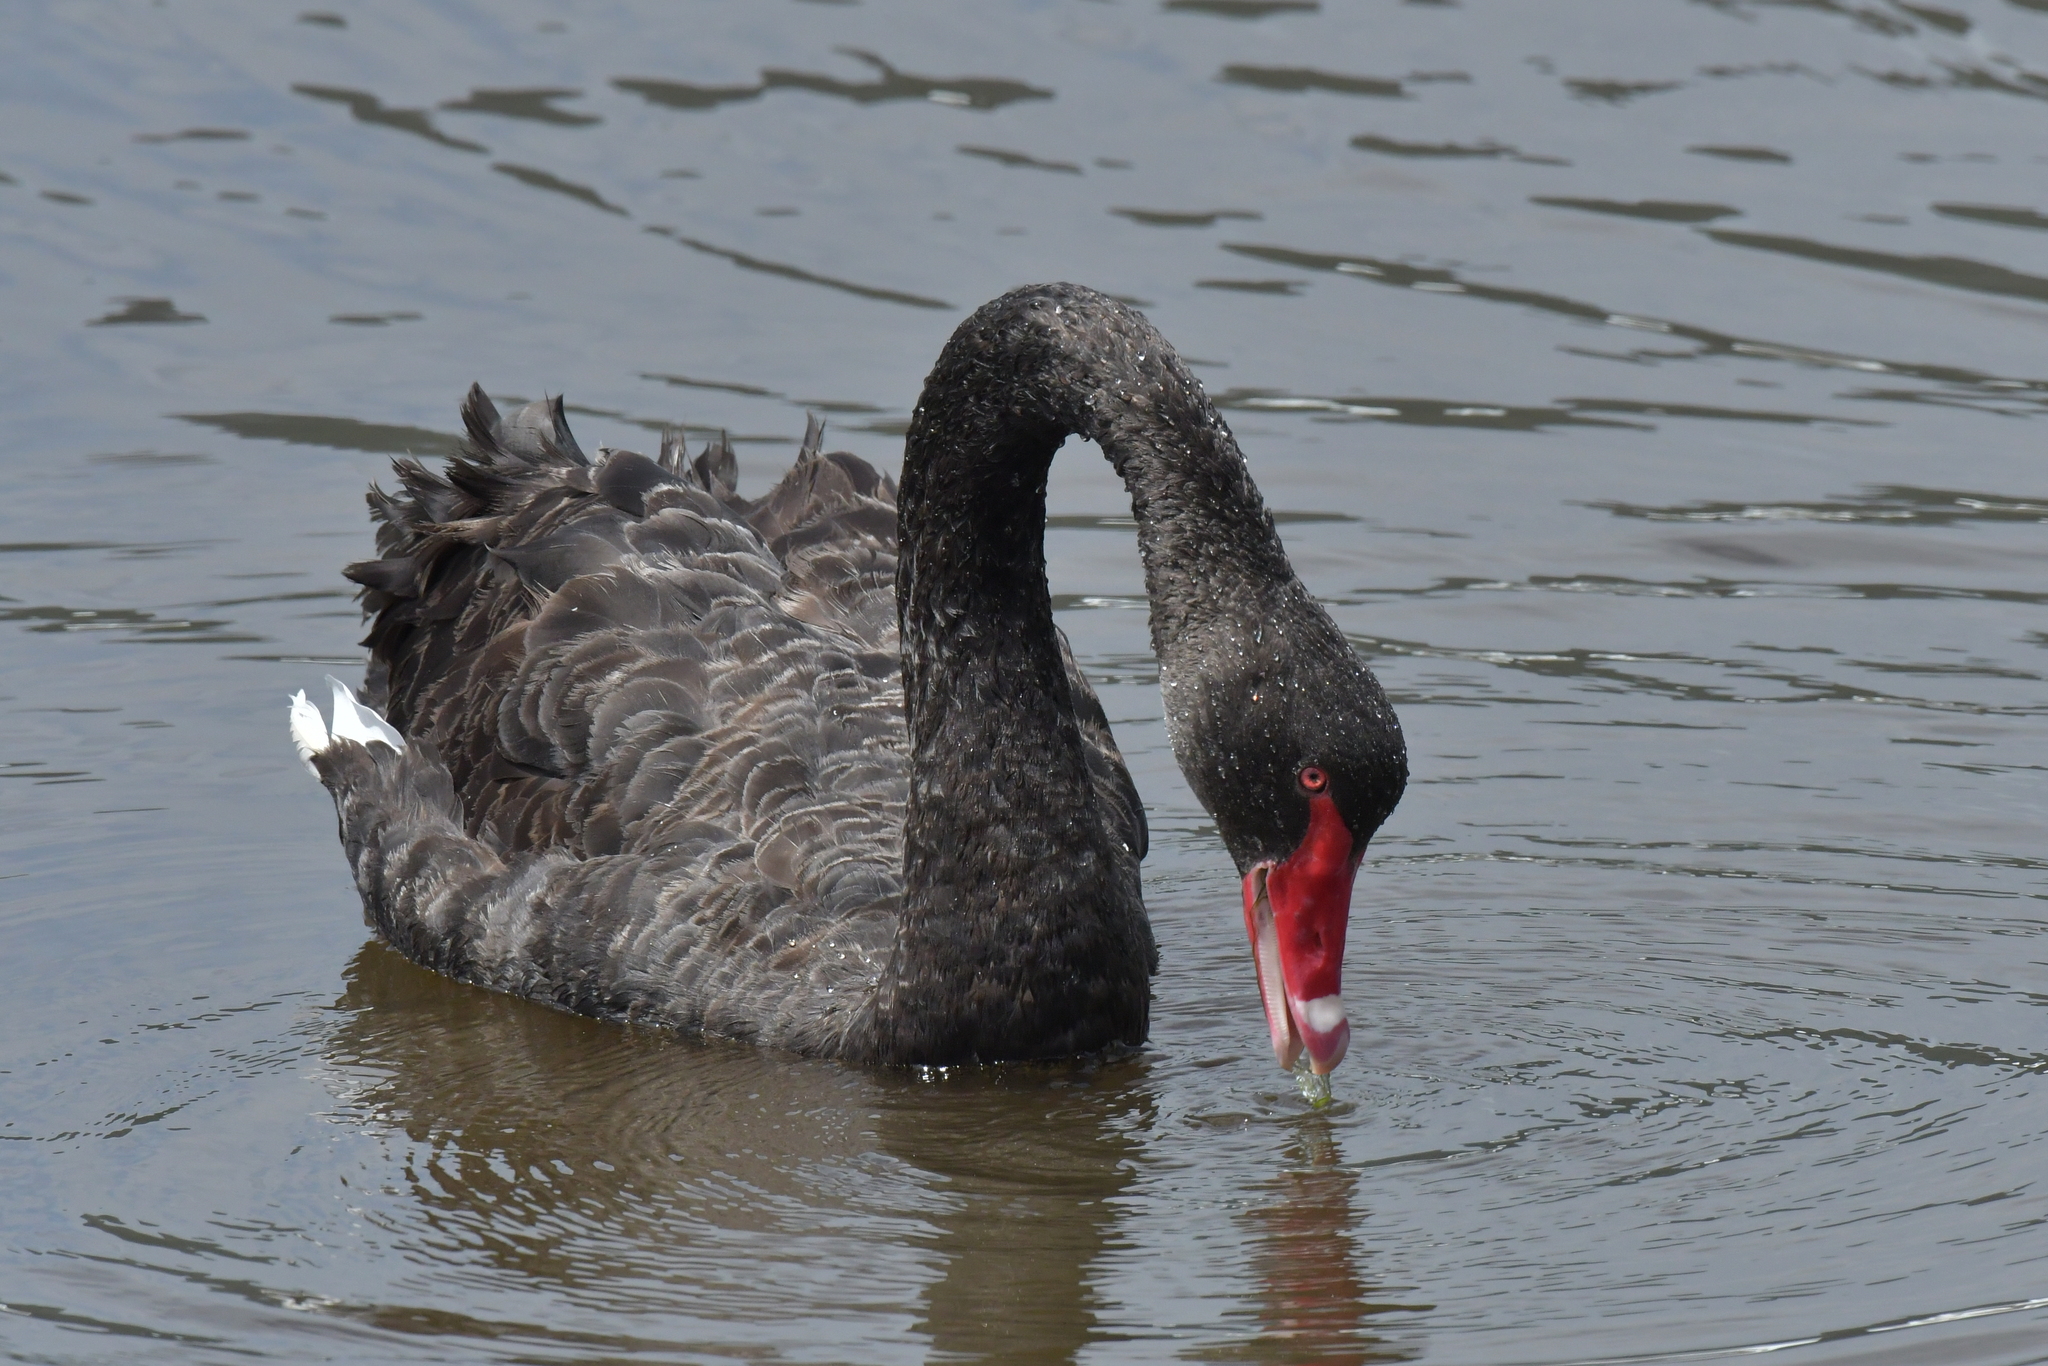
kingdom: Animalia
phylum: Chordata
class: Aves
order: Anseriformes
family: Anatidae
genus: Cygnus
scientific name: Cygnus atratus
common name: Black swan
